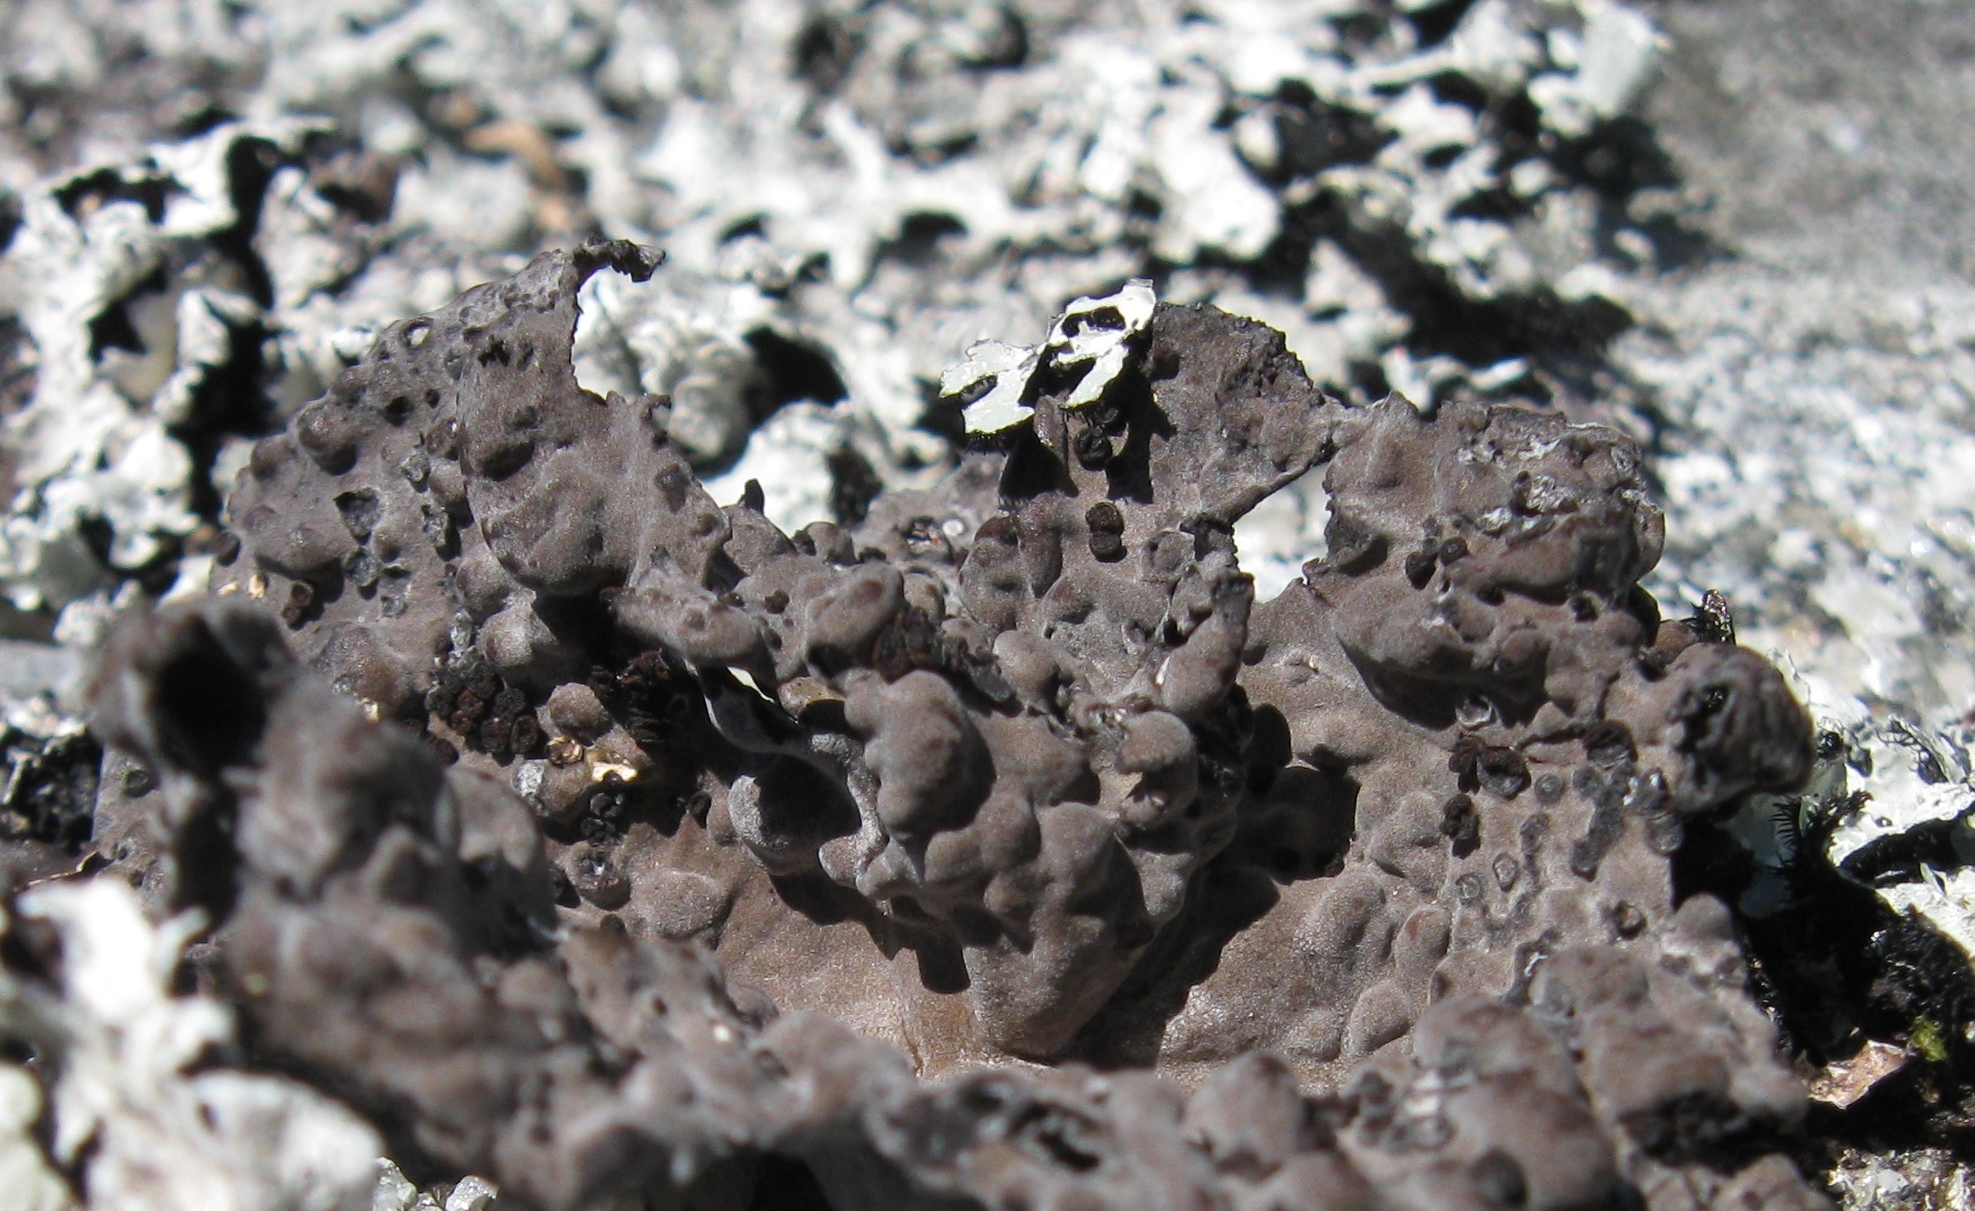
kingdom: Fungi
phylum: Ascomycota
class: Lecanoromycetes
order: Umbilicariales
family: Umbilicariaceae
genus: Lasallia
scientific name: Lasallia papulosa
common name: Common toadskin lichen
